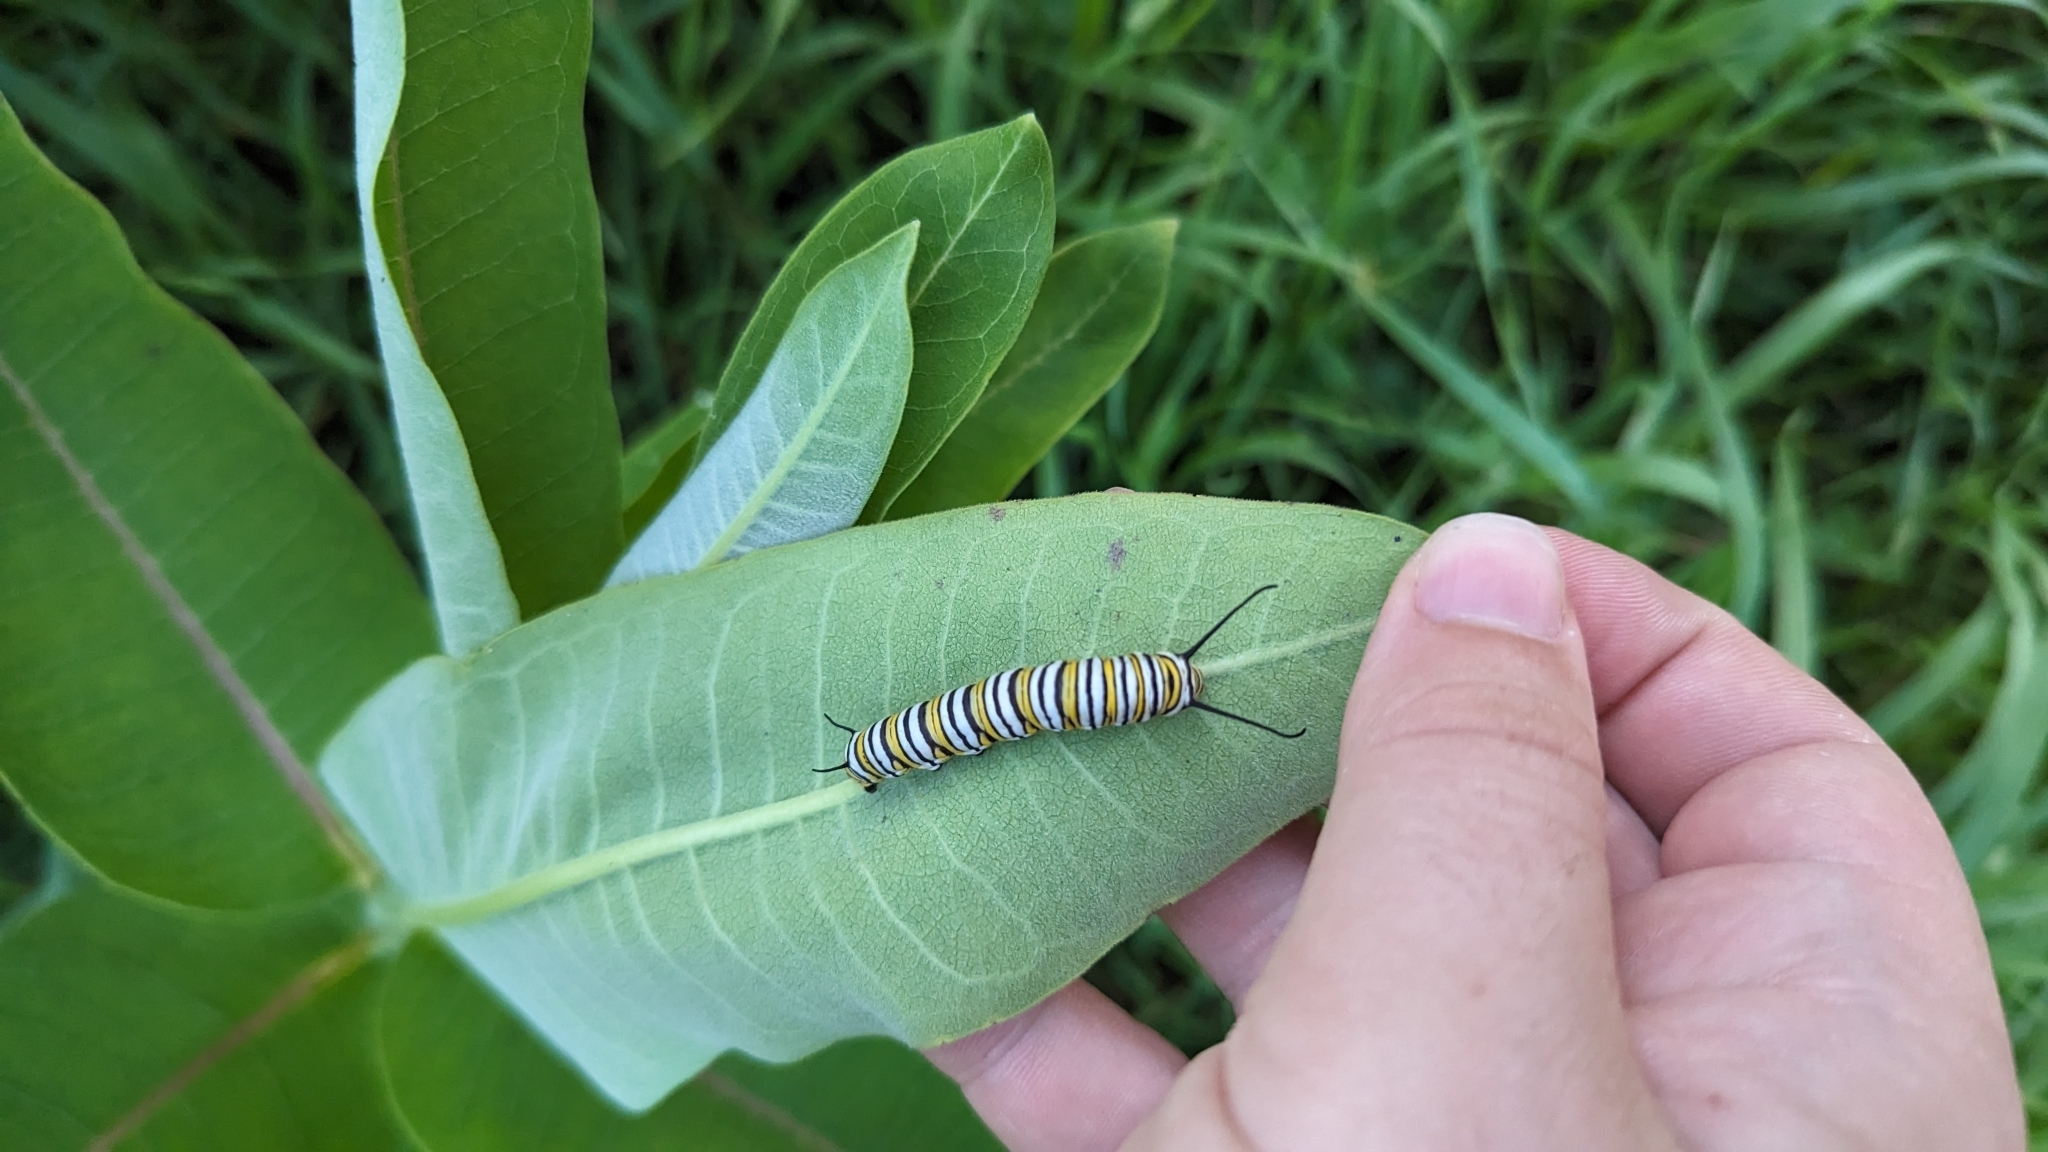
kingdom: Animalia
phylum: Arthropoda
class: Insecta
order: Lepidoptera
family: Nymphalidae
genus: Danaus
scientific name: Danaus plexippus
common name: Monarch
